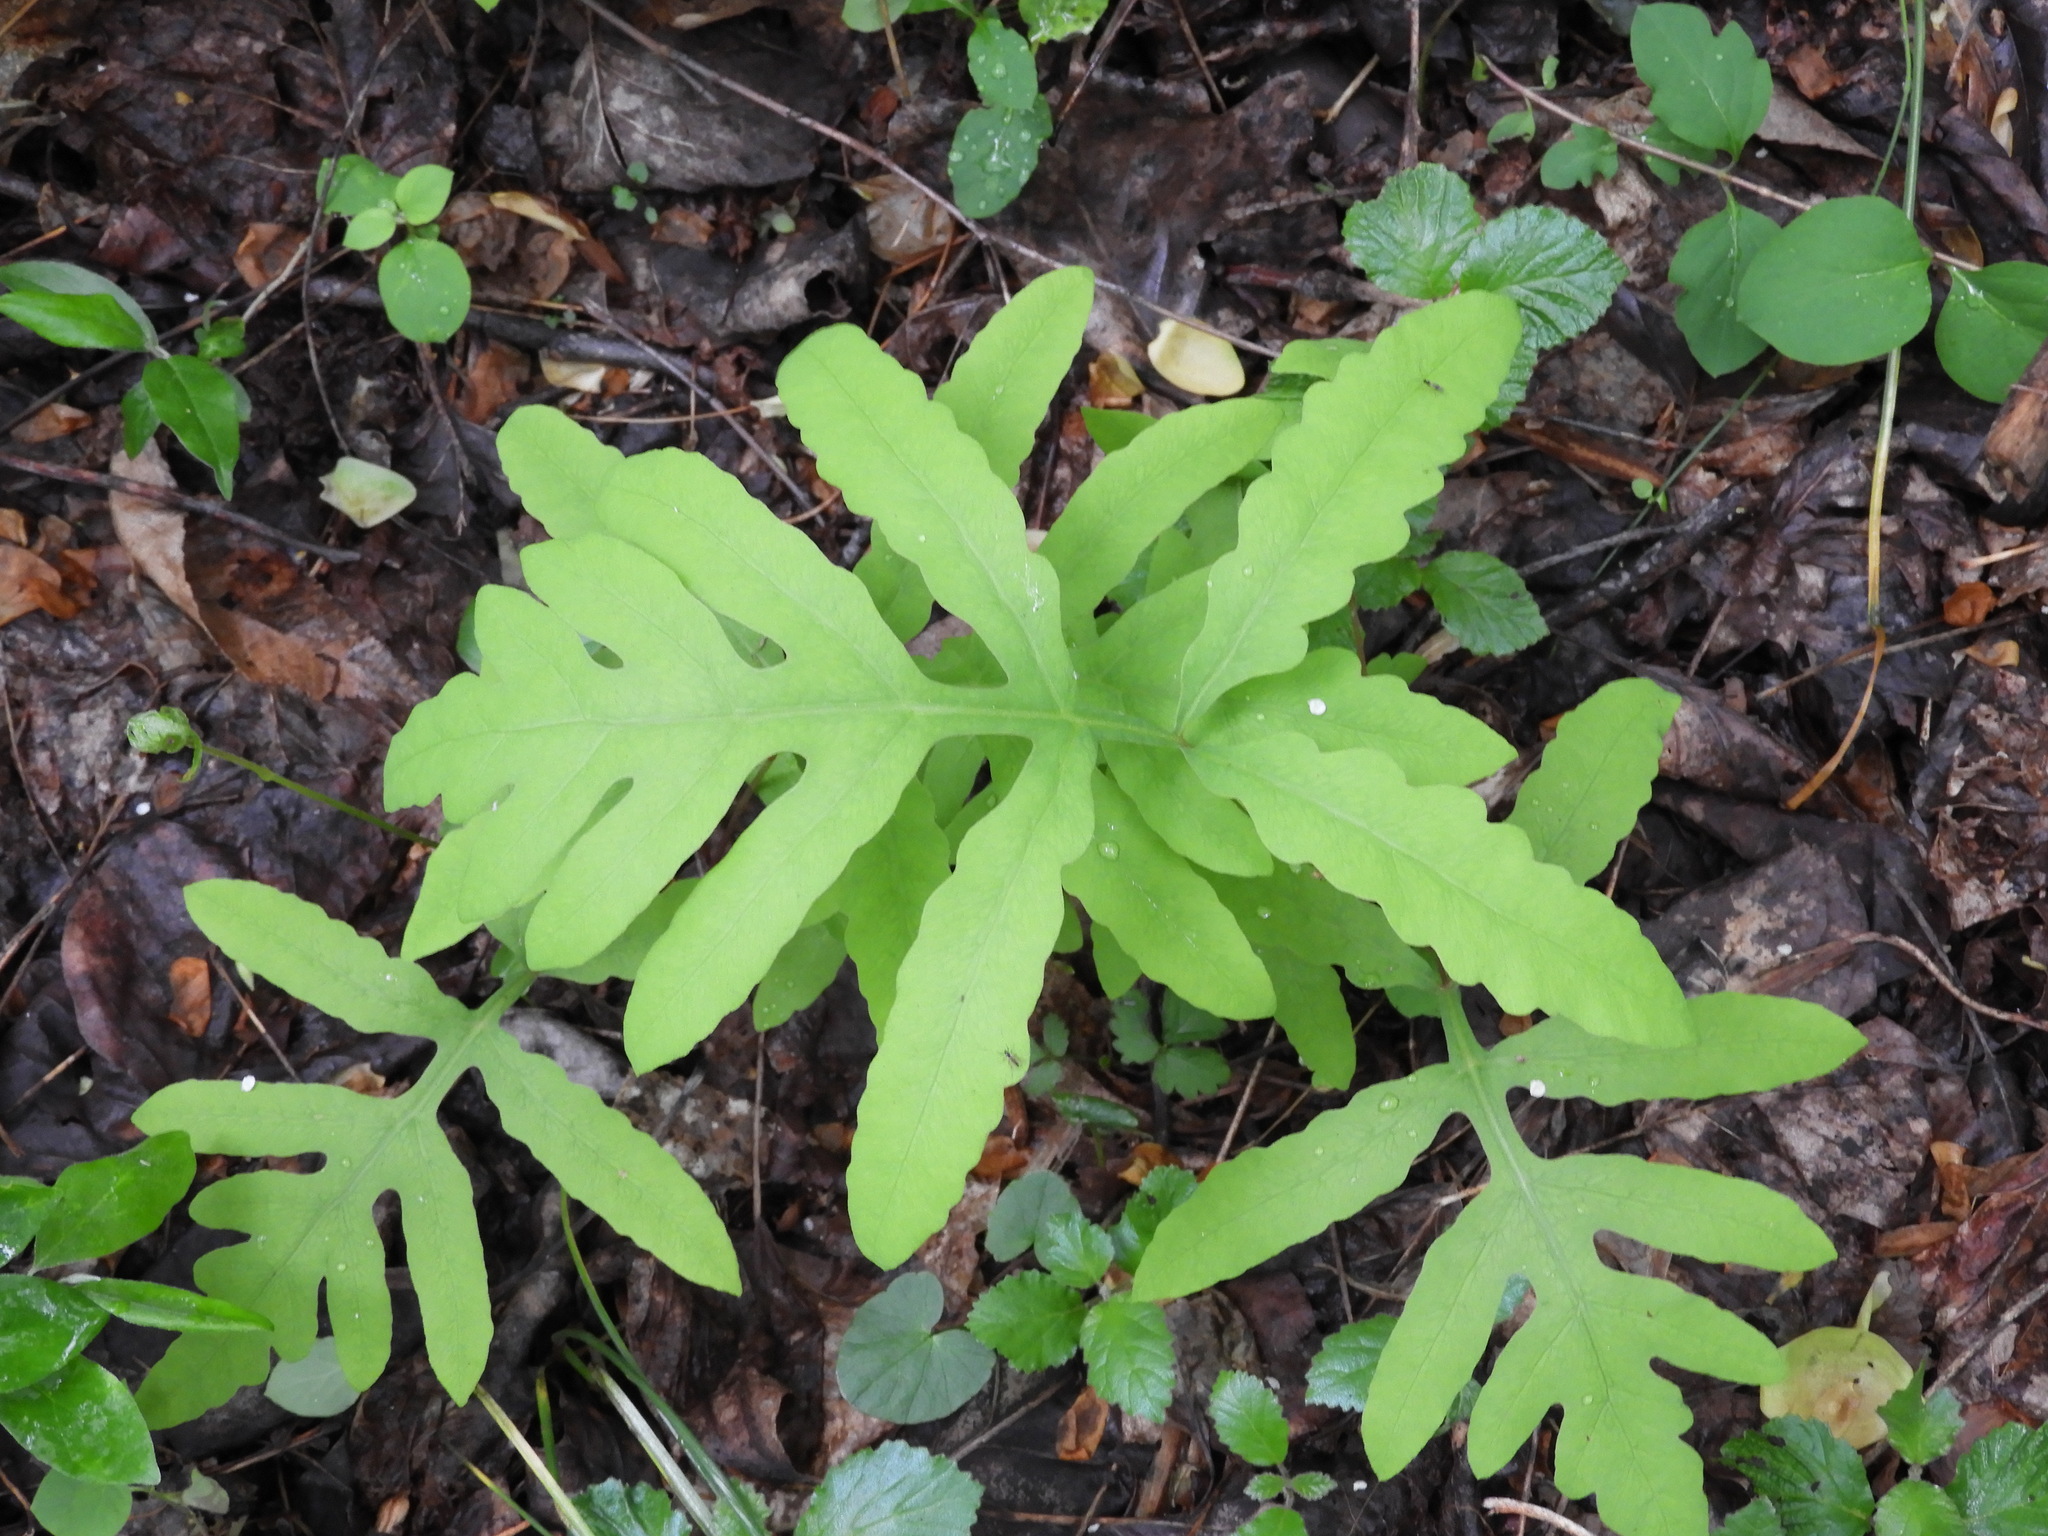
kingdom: Plantae
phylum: Tracheophyta
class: Polypodiopsida
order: Polypodiales
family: Onocleaceae
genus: Onoclea
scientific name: Onoclea sensibilis
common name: Sensitive fern
